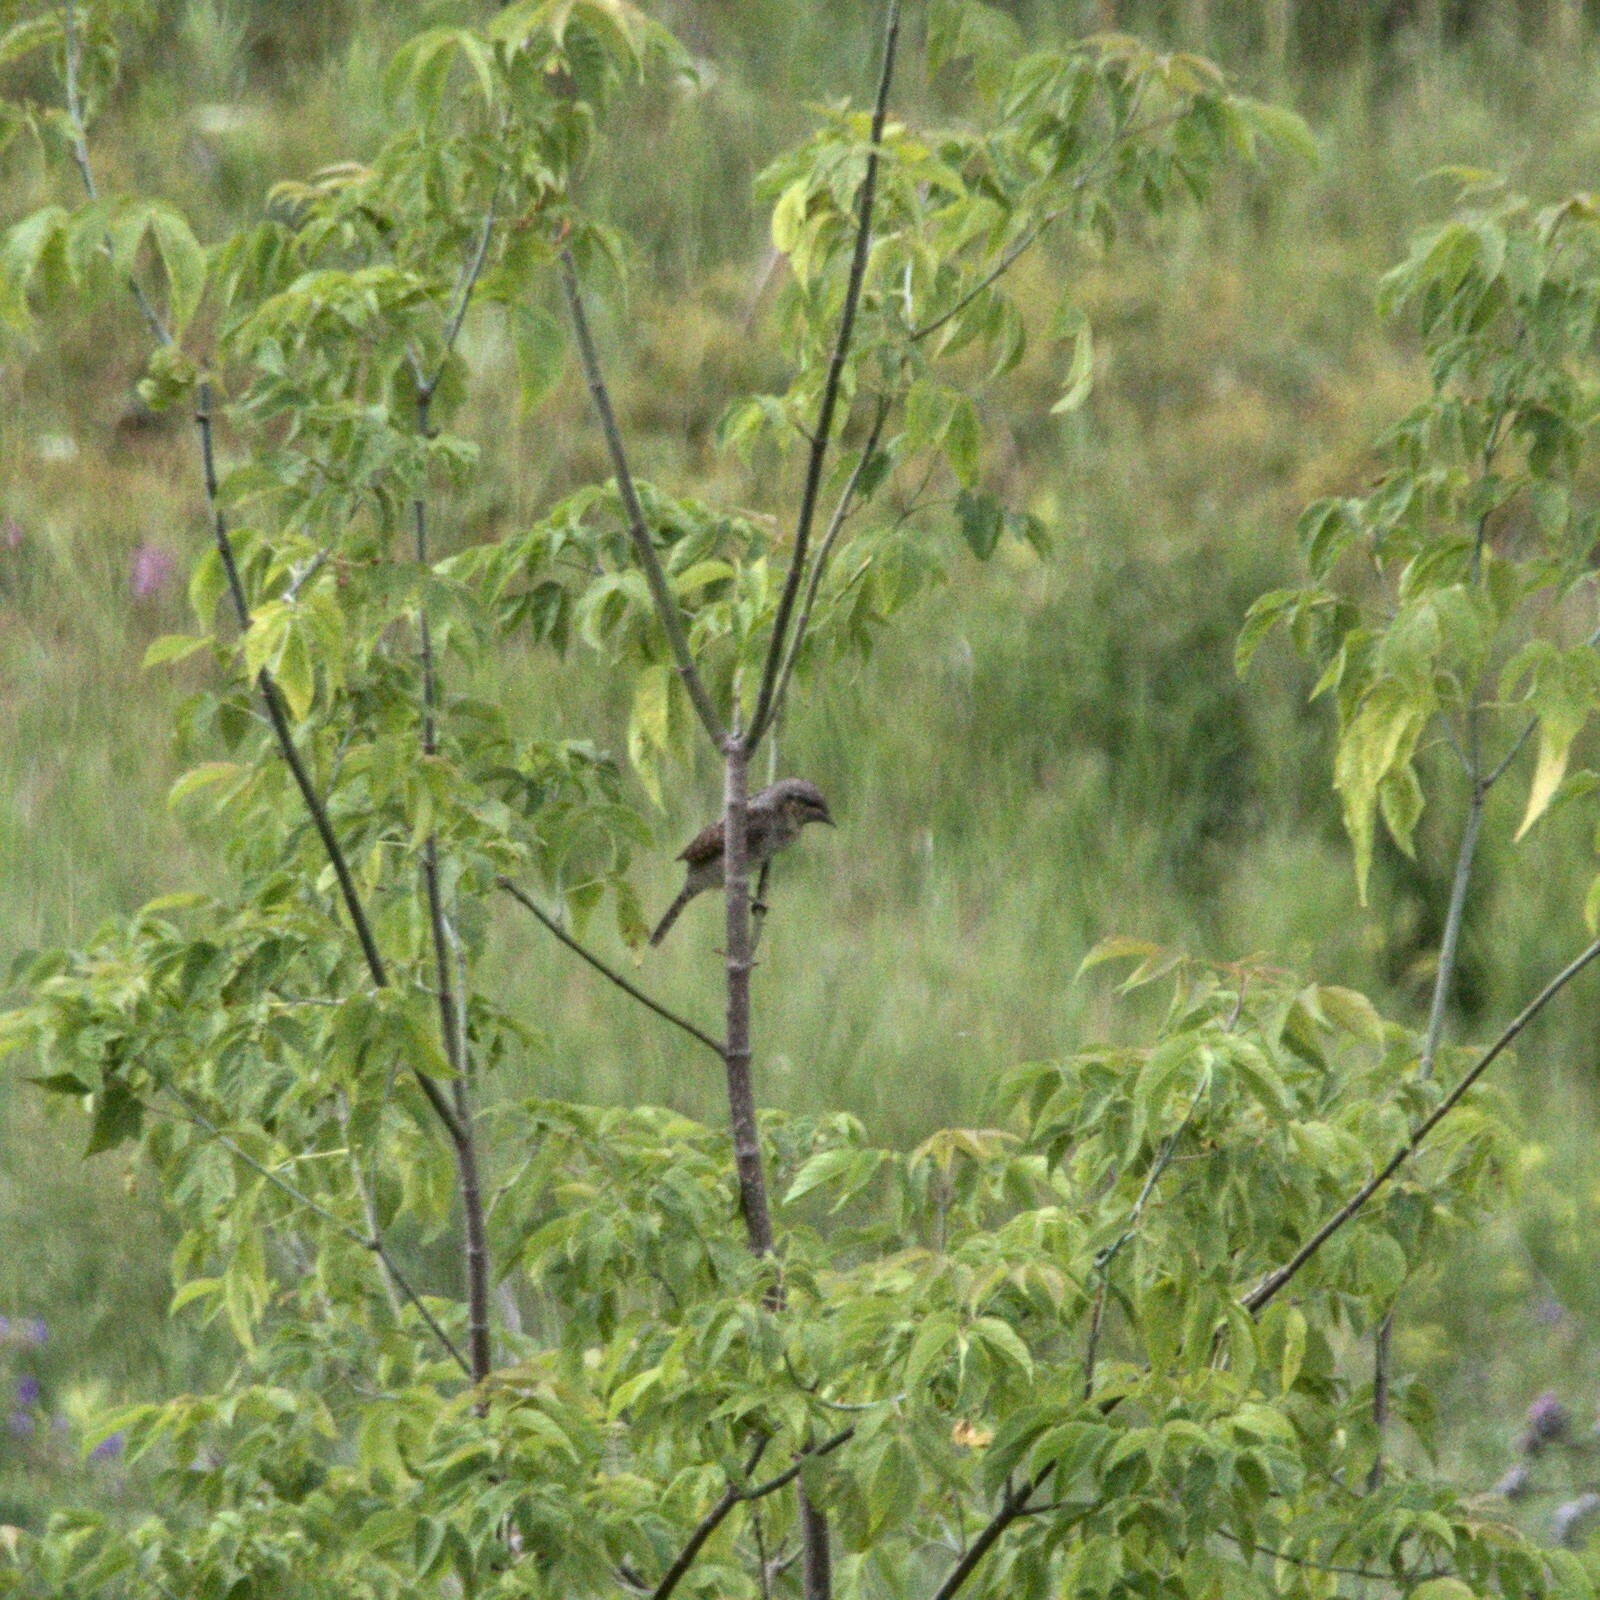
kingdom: Animalia
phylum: Chordata
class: Aves
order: Passeriformes
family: Laniidae
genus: Lanius
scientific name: Lanius collurio
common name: Red-backed shrike
